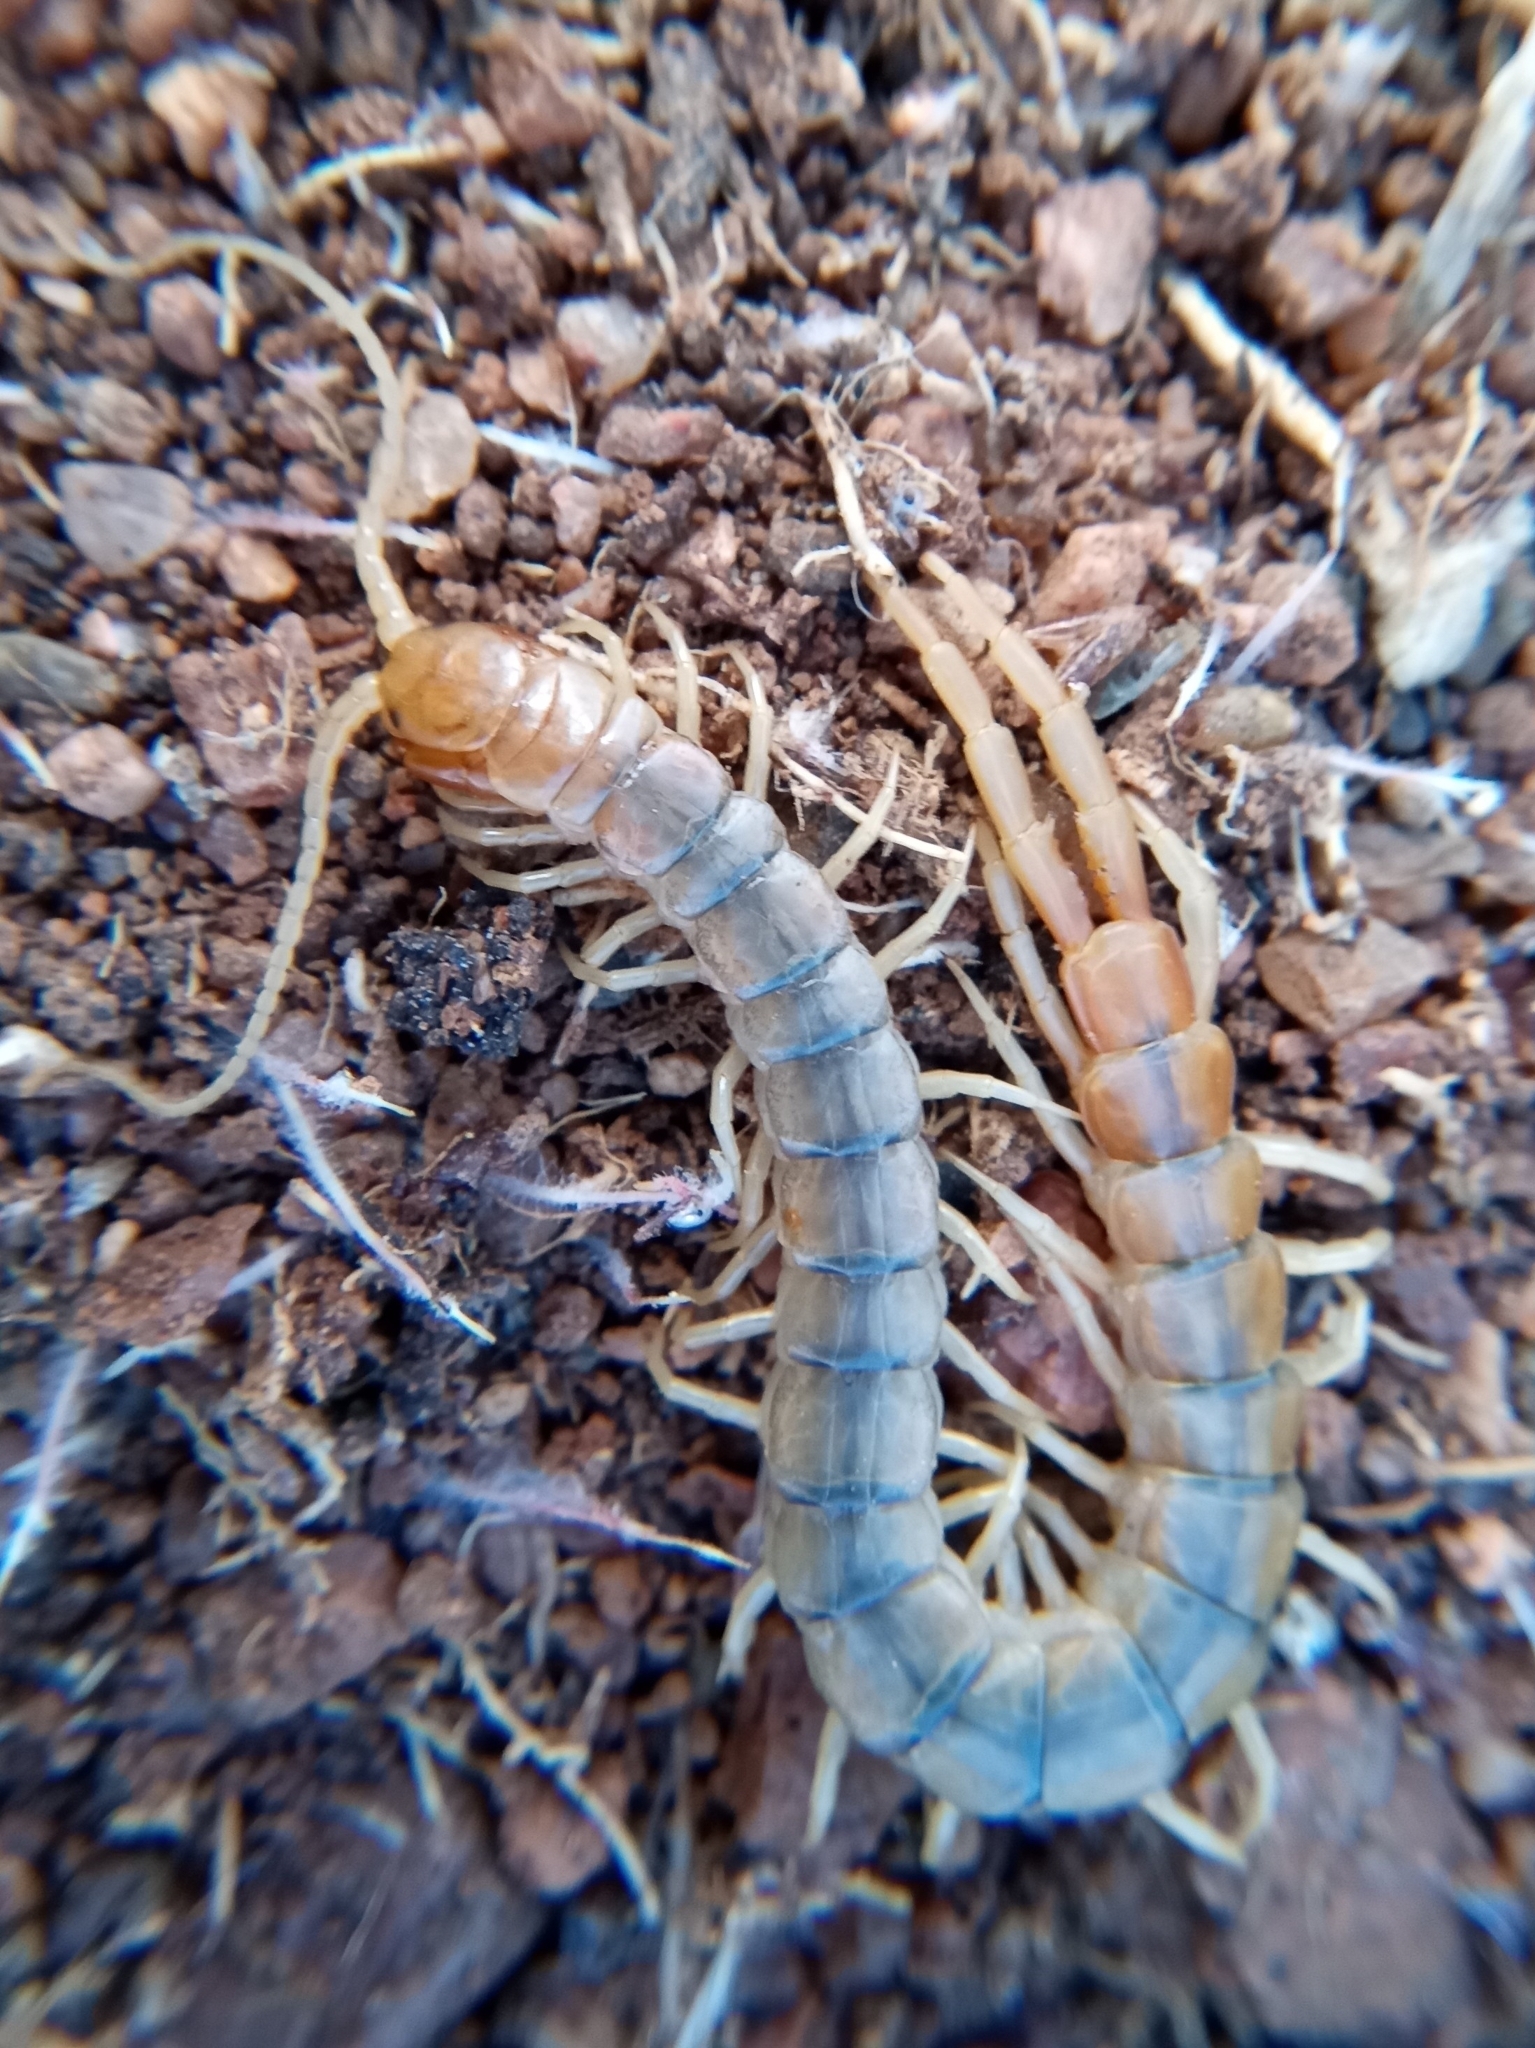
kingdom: Animalia
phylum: Arthropoda
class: Chilopoda
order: Scolopendromorpha
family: Scolopendridae
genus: Scolopendra
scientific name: Scolopendra polymorpha
